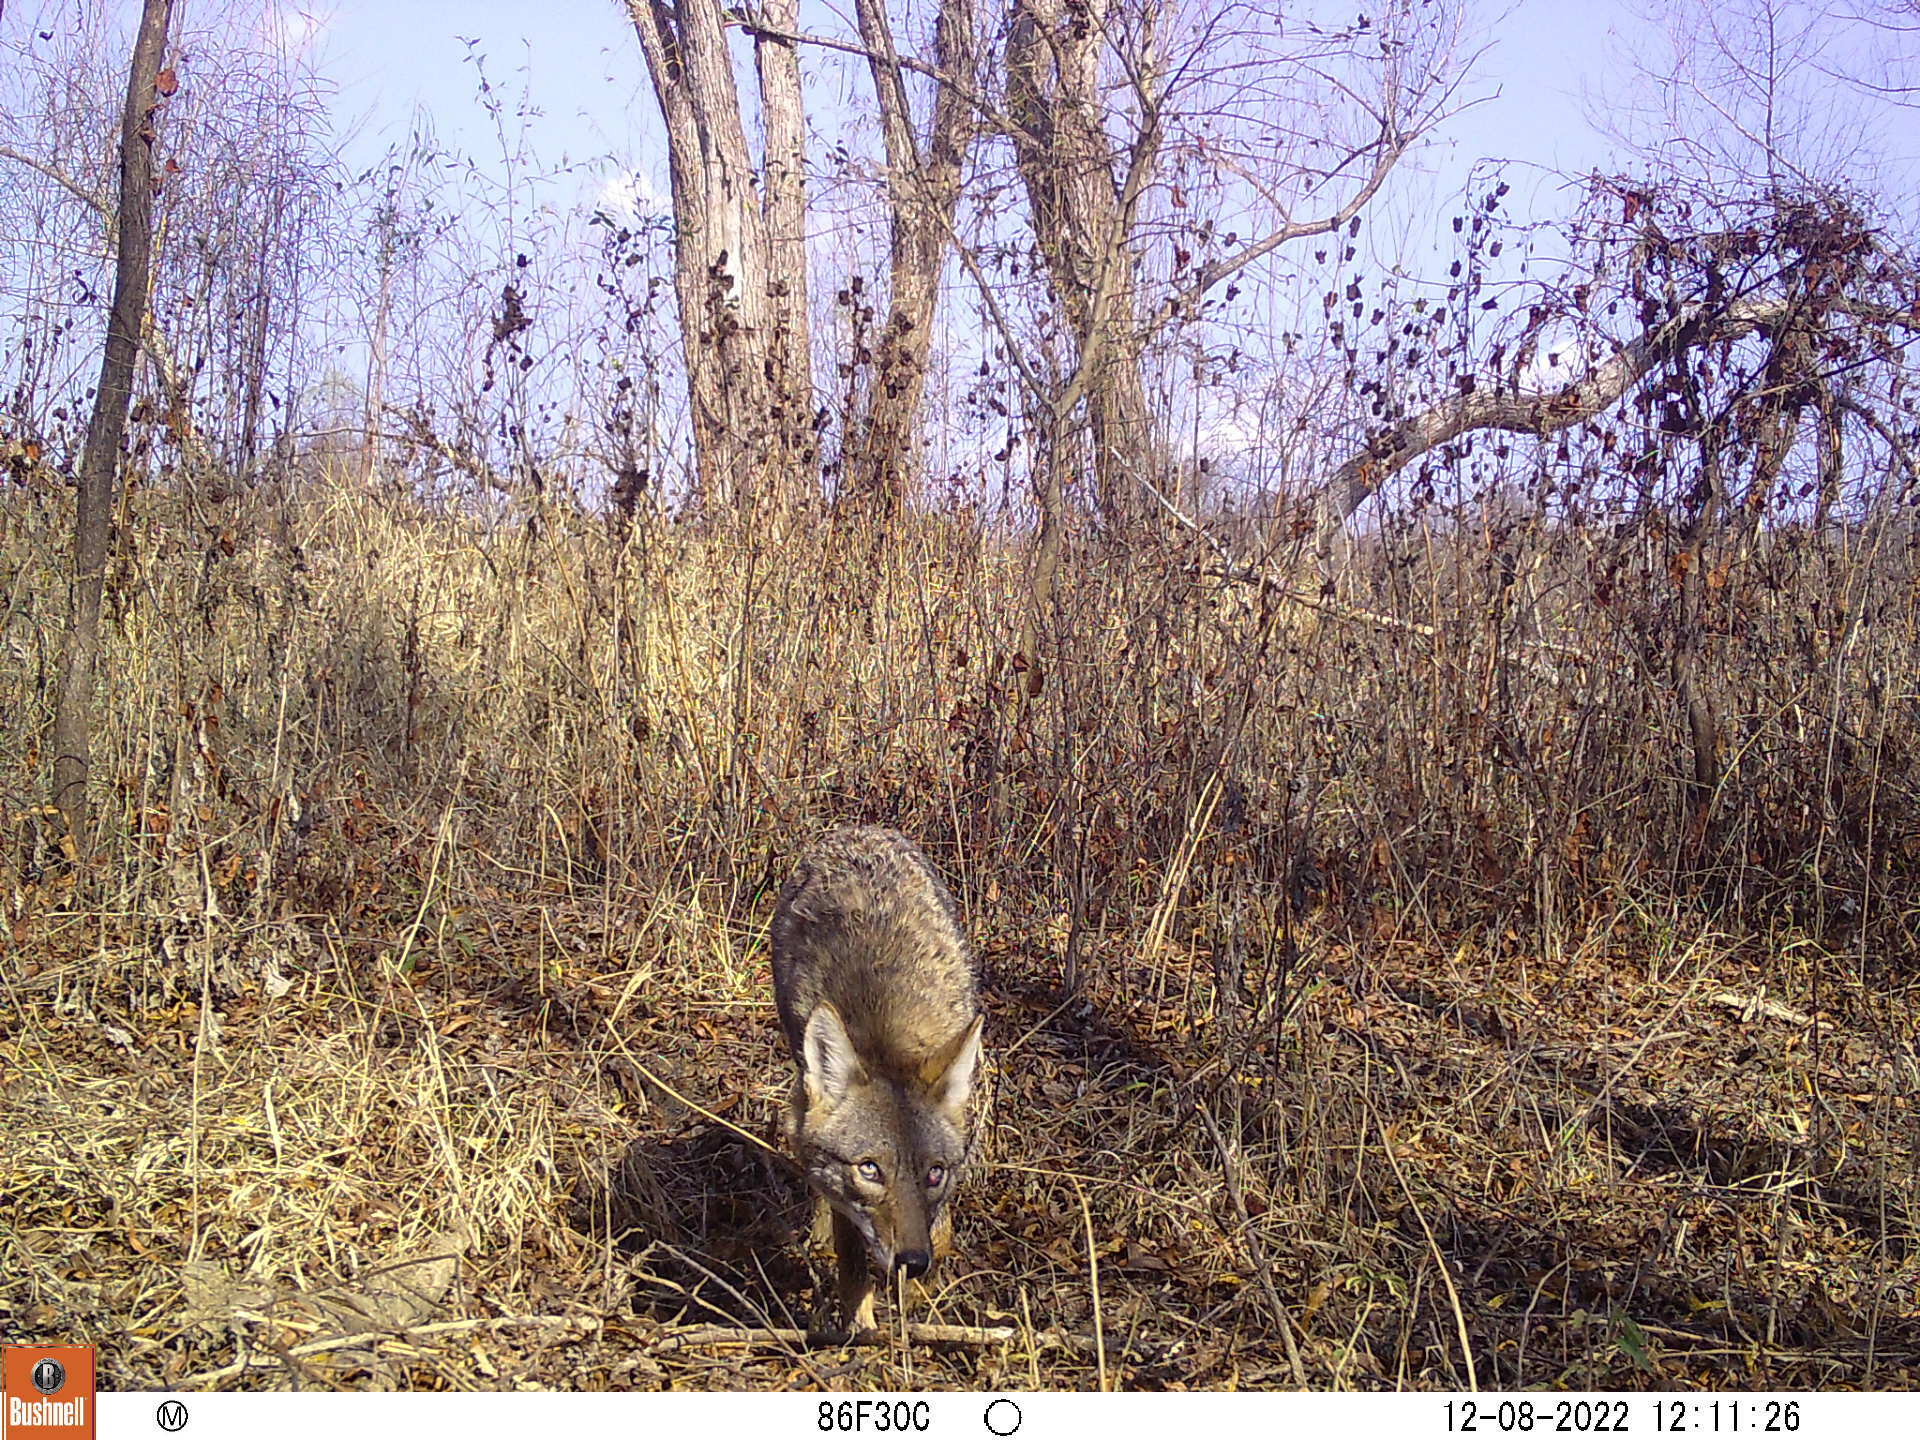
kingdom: Animalia
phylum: Chordata
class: Mammalia
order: Carnivora
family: Canidae
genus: Canis
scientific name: Canis latrans
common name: Coyote
